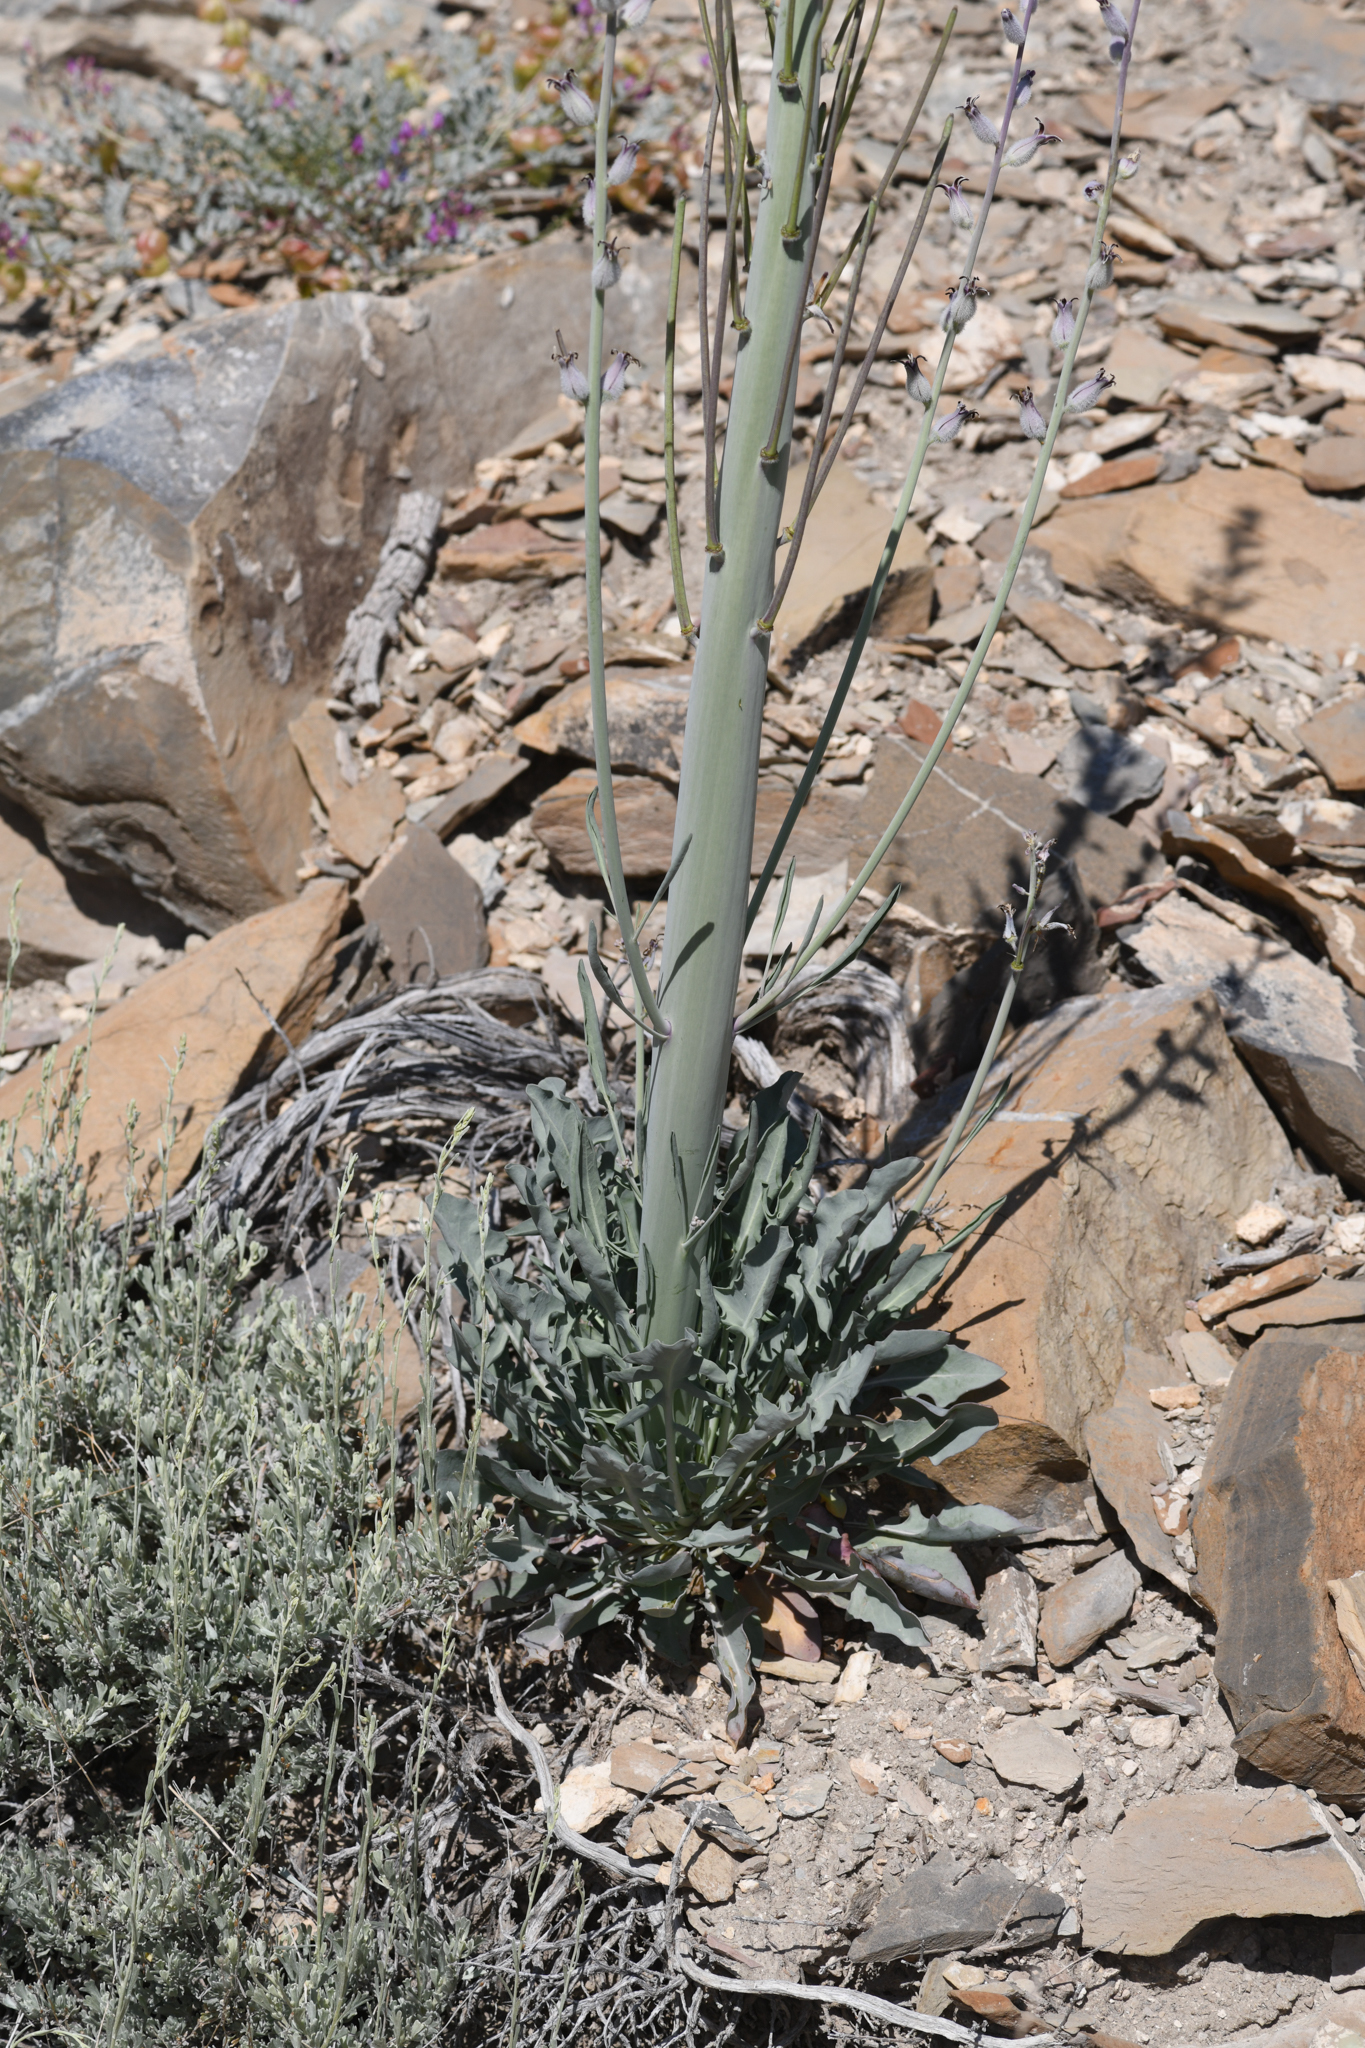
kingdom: Plantae
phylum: Tracheophyta
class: Magnoliopsida
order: Brassicales
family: Brassicaceae
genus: Streptanthus
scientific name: Streptanthus crassicaulis
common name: Thick-stem wild cabbage
